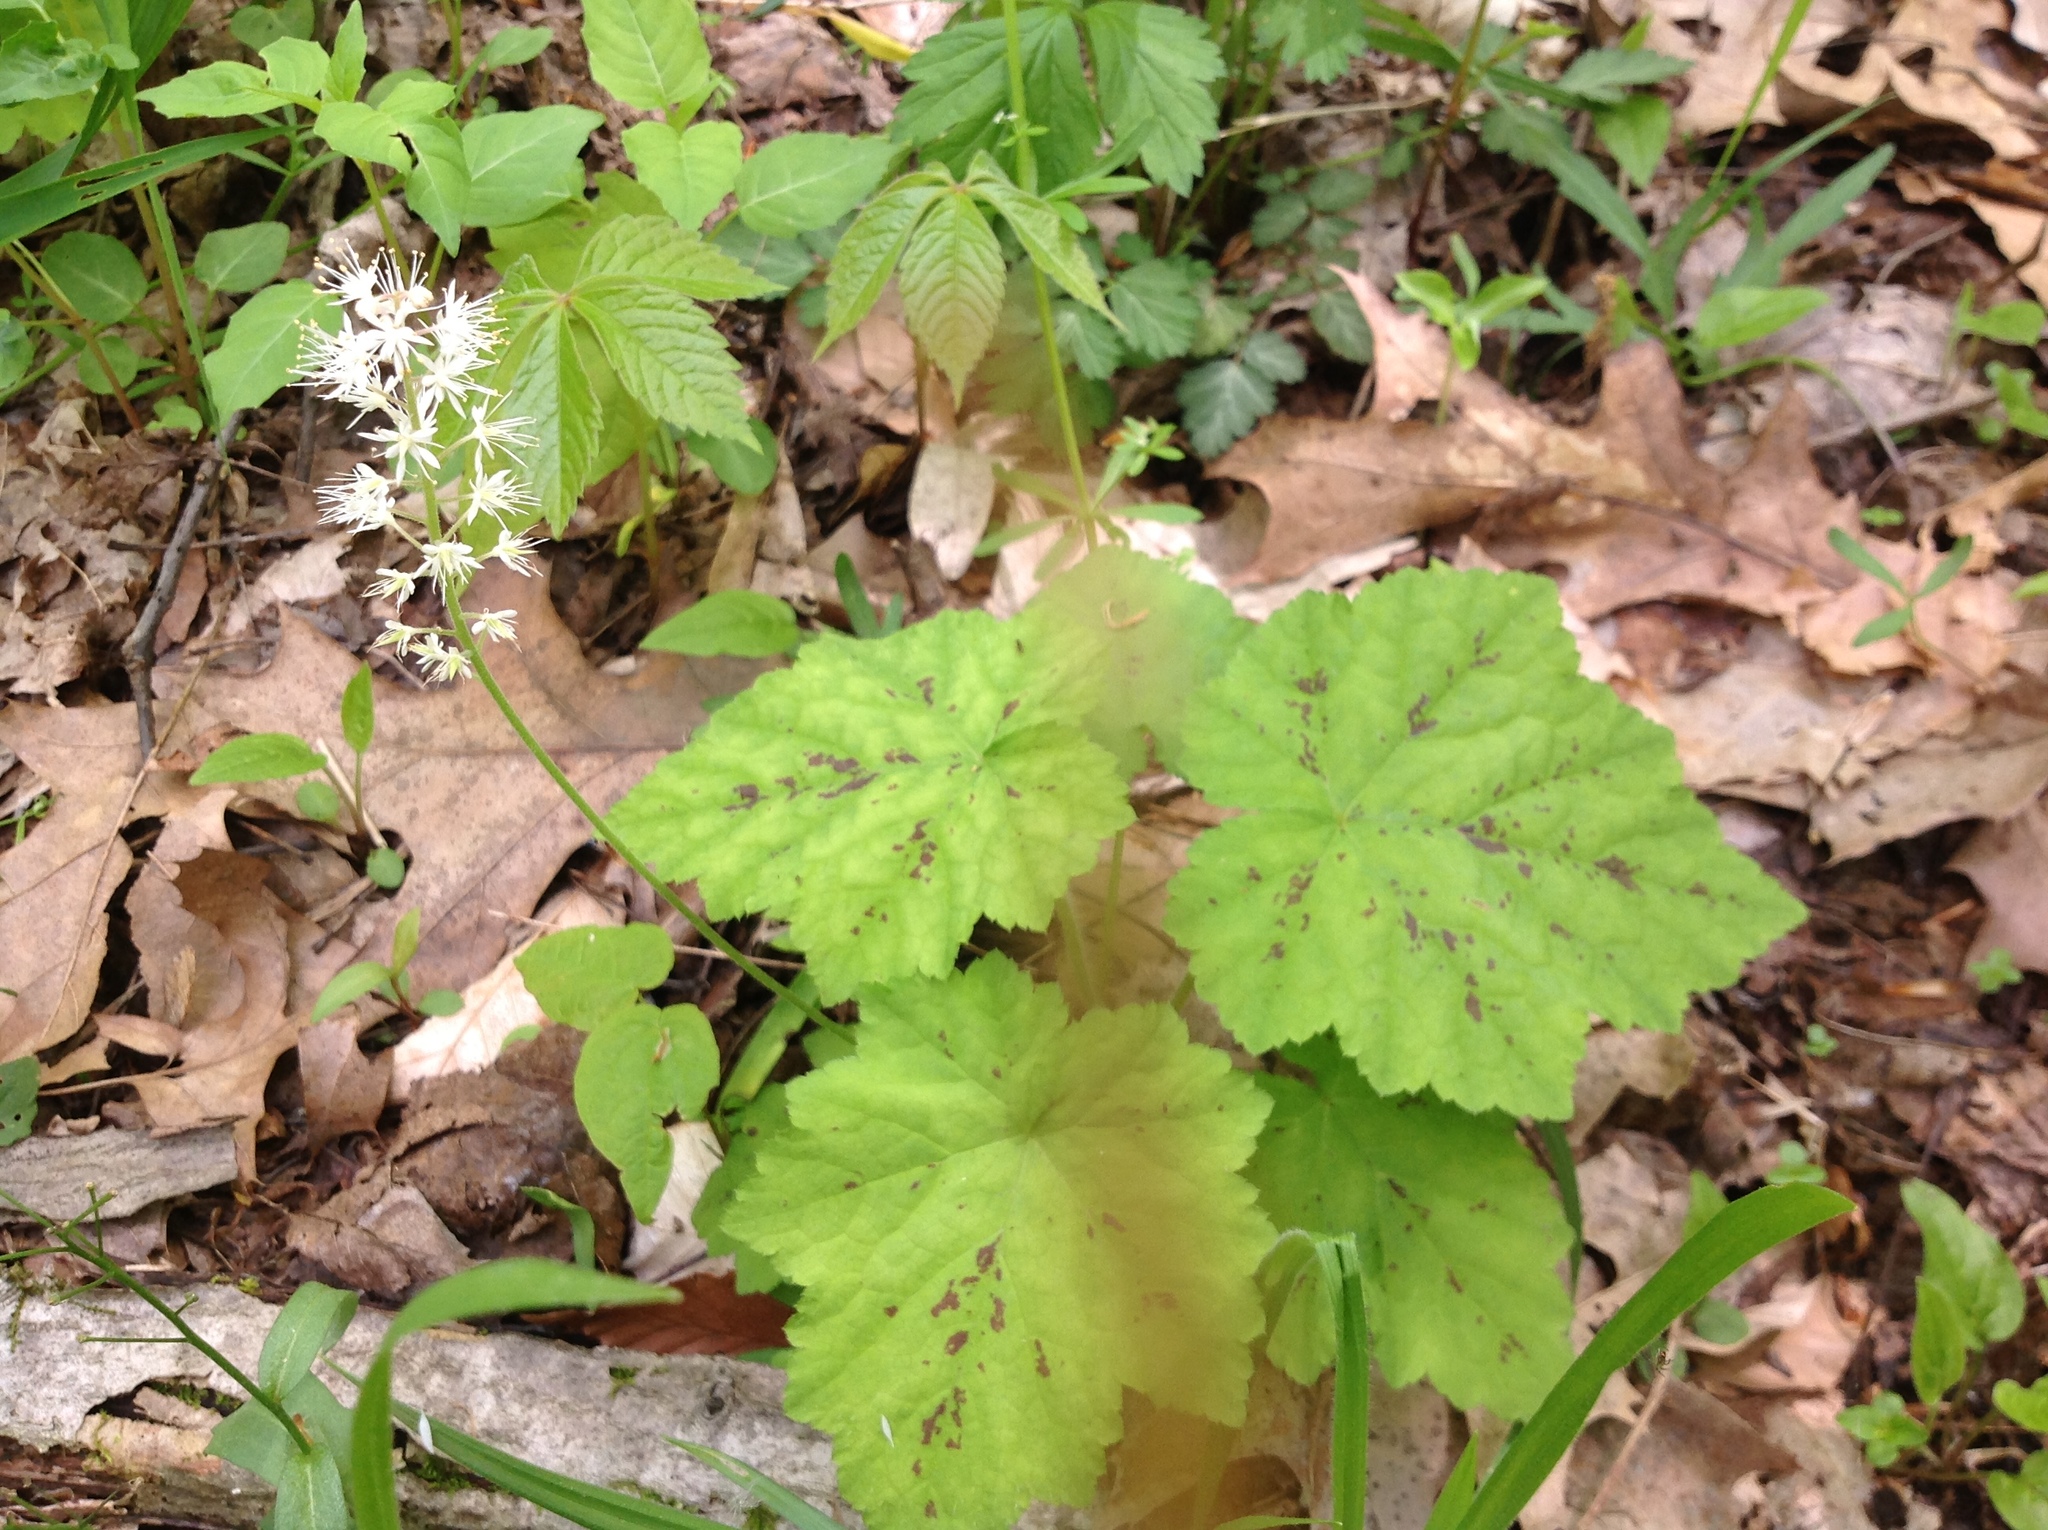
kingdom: Plantae
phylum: Tracheophyta
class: Magnoliopsida
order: Saxifragales
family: Saxifragaceae
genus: Tiarella
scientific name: Tiarella stolonifera
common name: Stoloniferous foamflower
